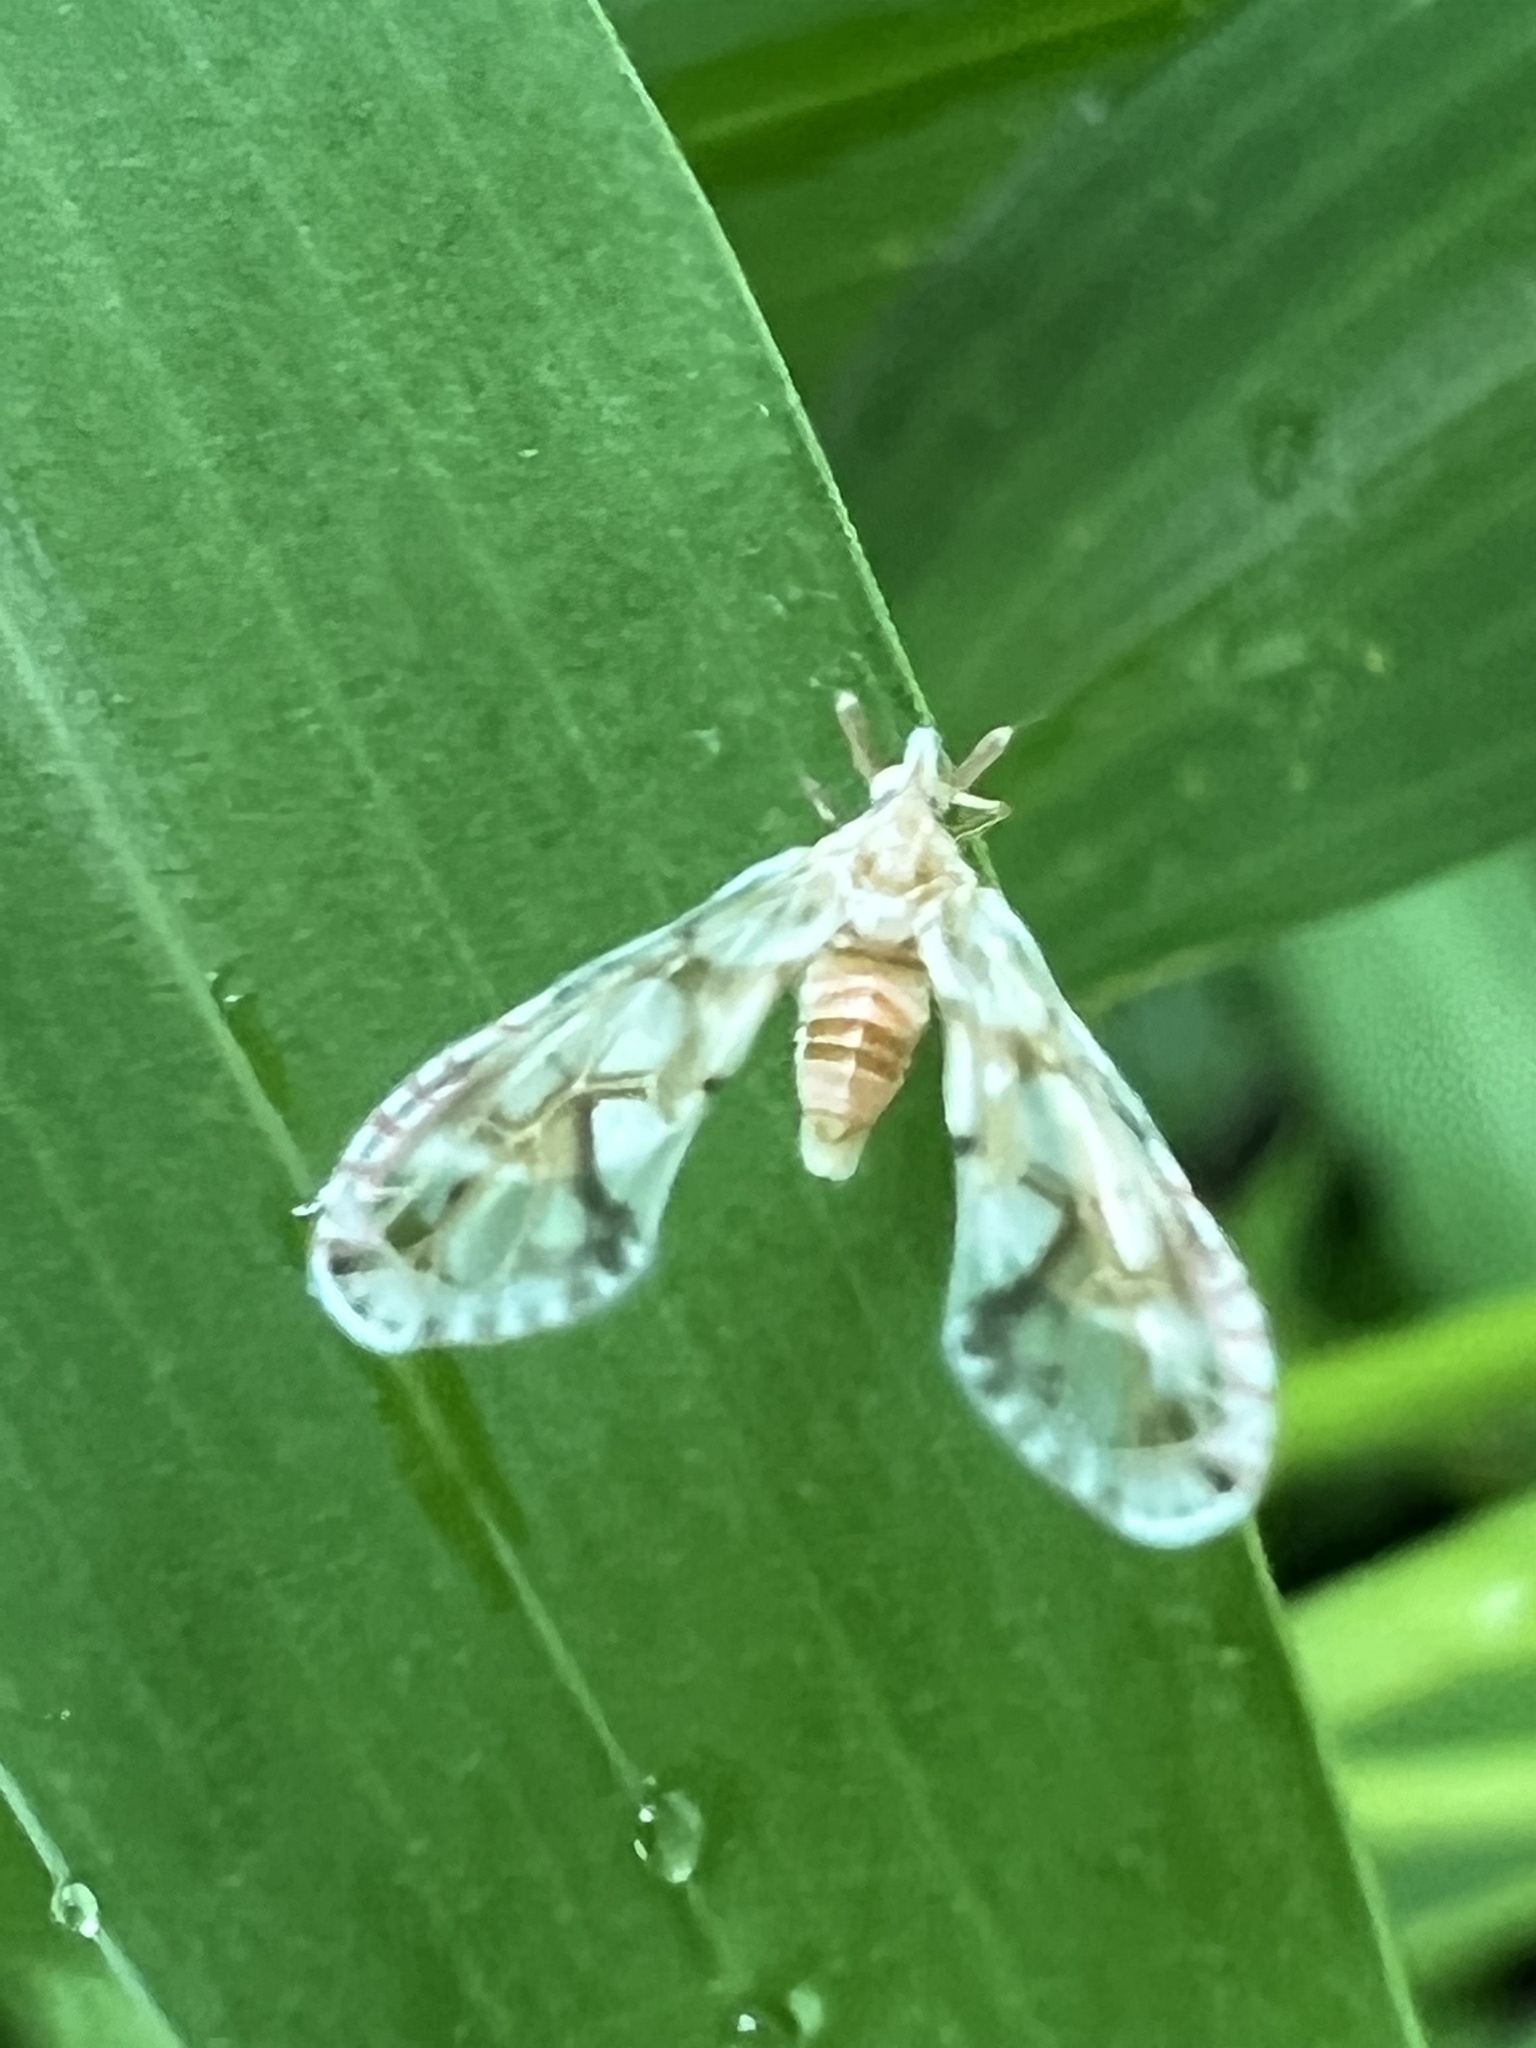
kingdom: Animalia
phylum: Arthropoda
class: Insecta
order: Hemiptera
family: Derbidae
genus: Anotia
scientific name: Anotia kirkaldyi
